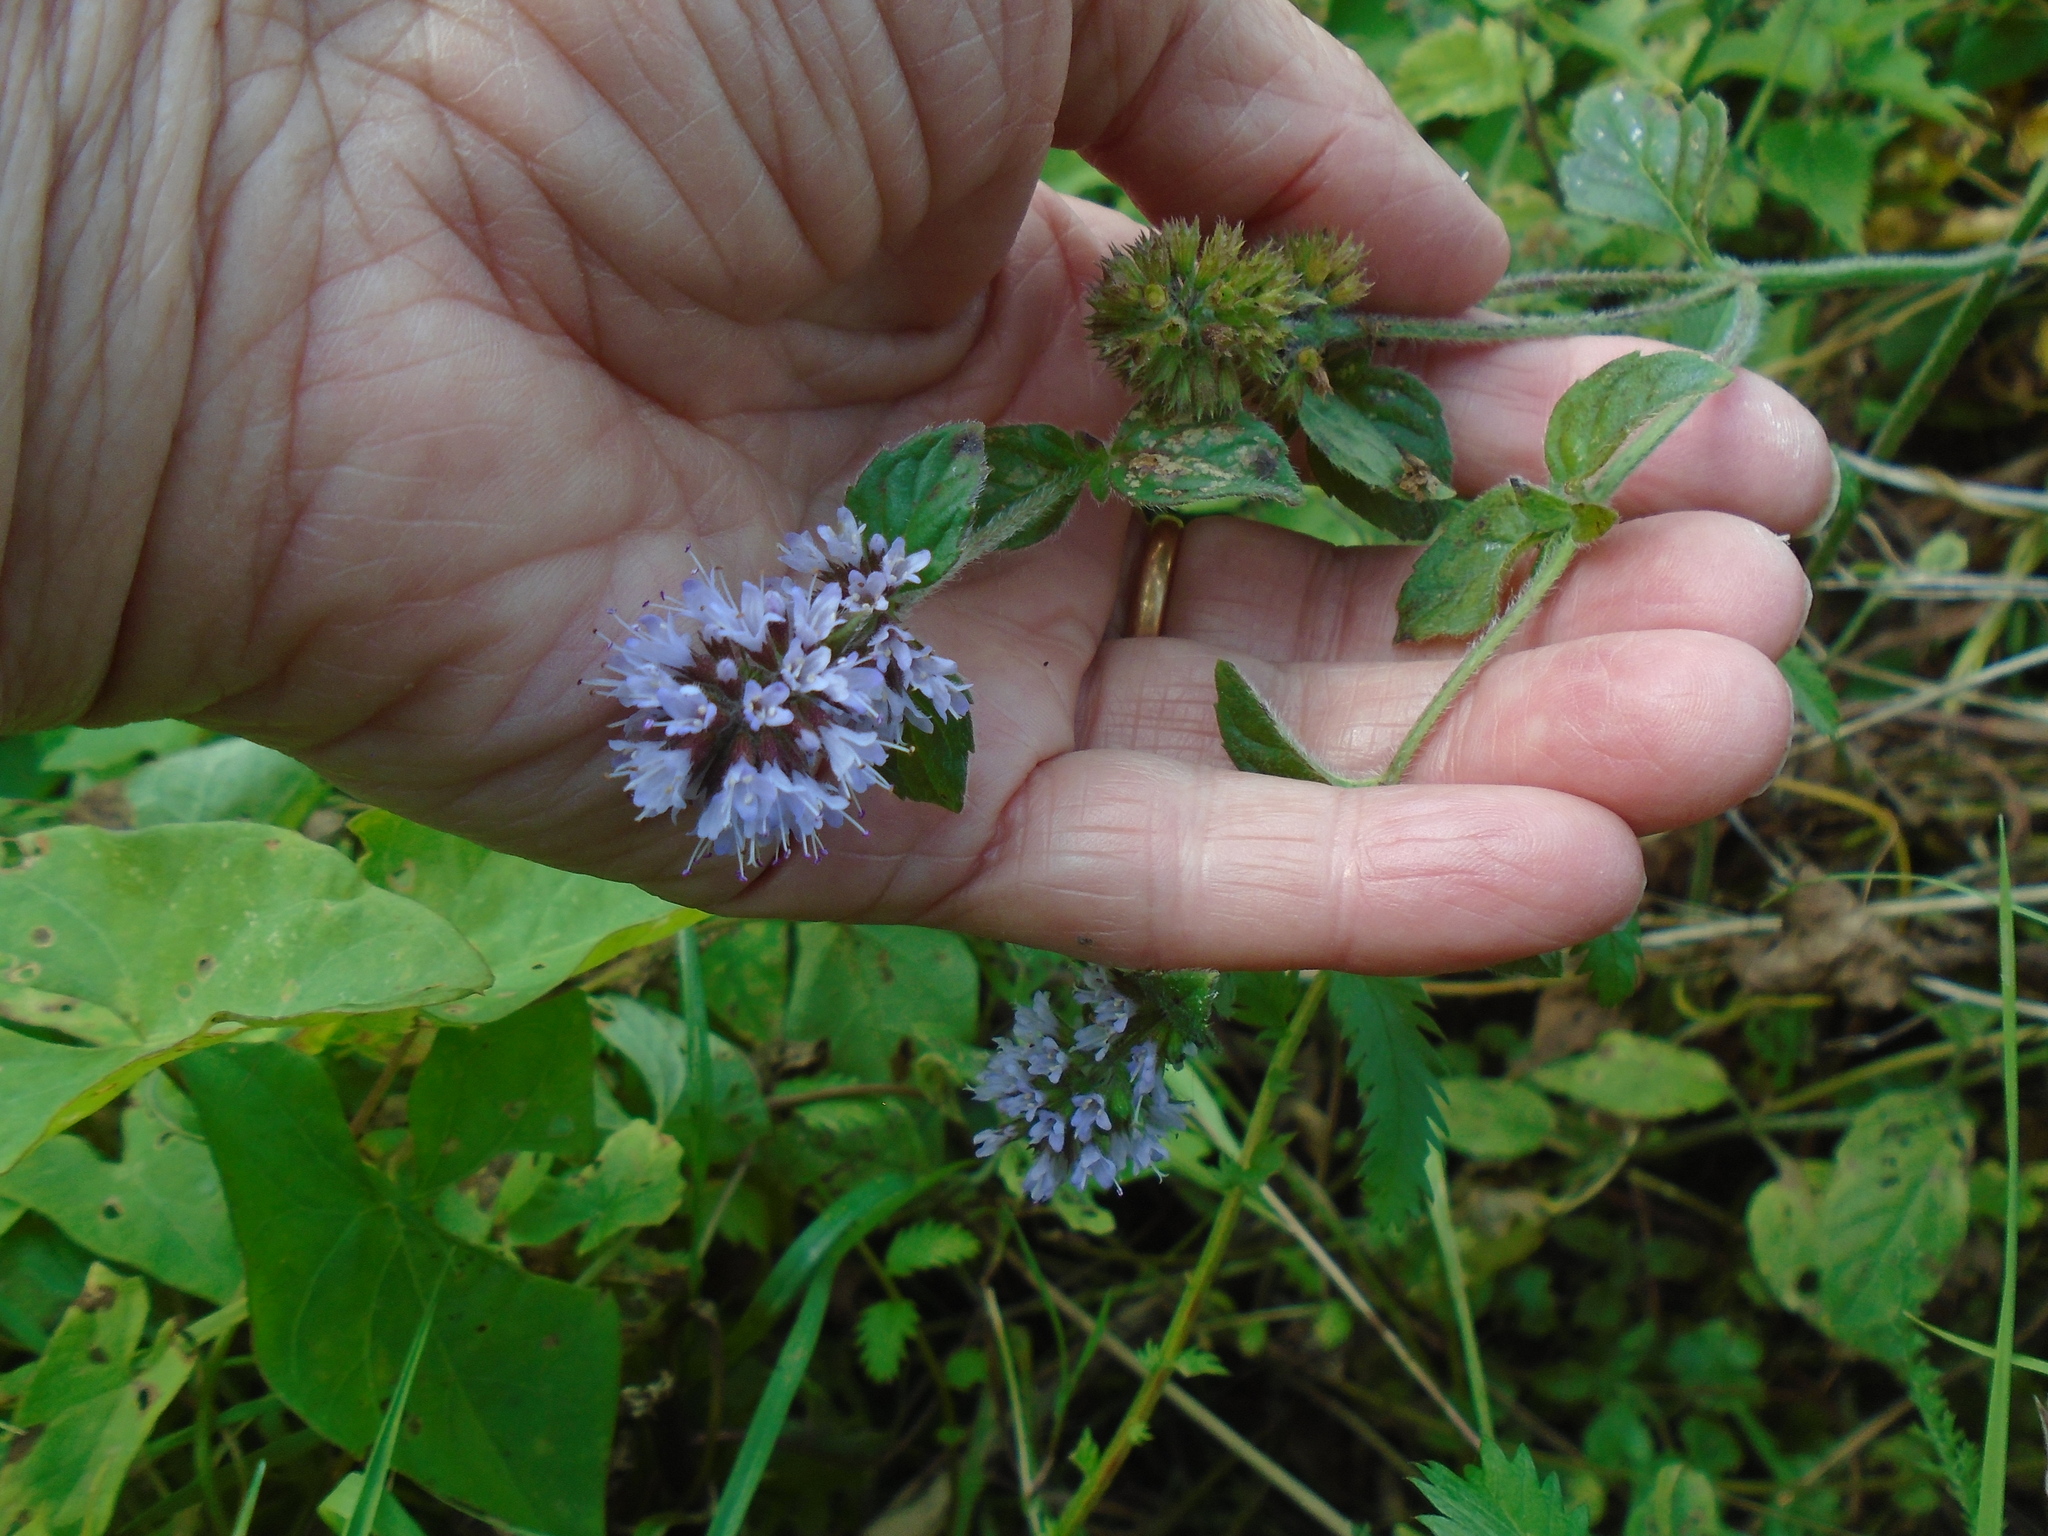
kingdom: Plantae
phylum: Tracheophyta
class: Magnoliopsida
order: Lamiales
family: Lamiaceae
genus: Mentha
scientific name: Mentha aquatica
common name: Water mint
